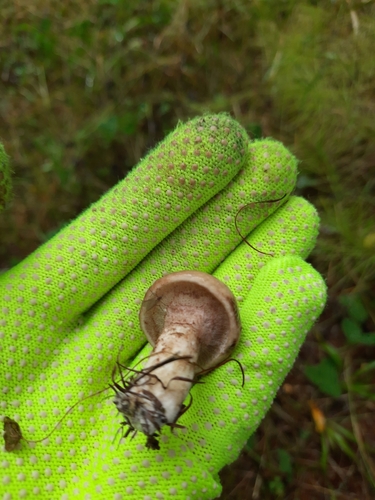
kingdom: Fungi
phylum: Basidiomycota
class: Agaricomycetes
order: Boletales
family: Suillaceae
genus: Suillus
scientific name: Suillus viscidus
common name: Sticky bolete
